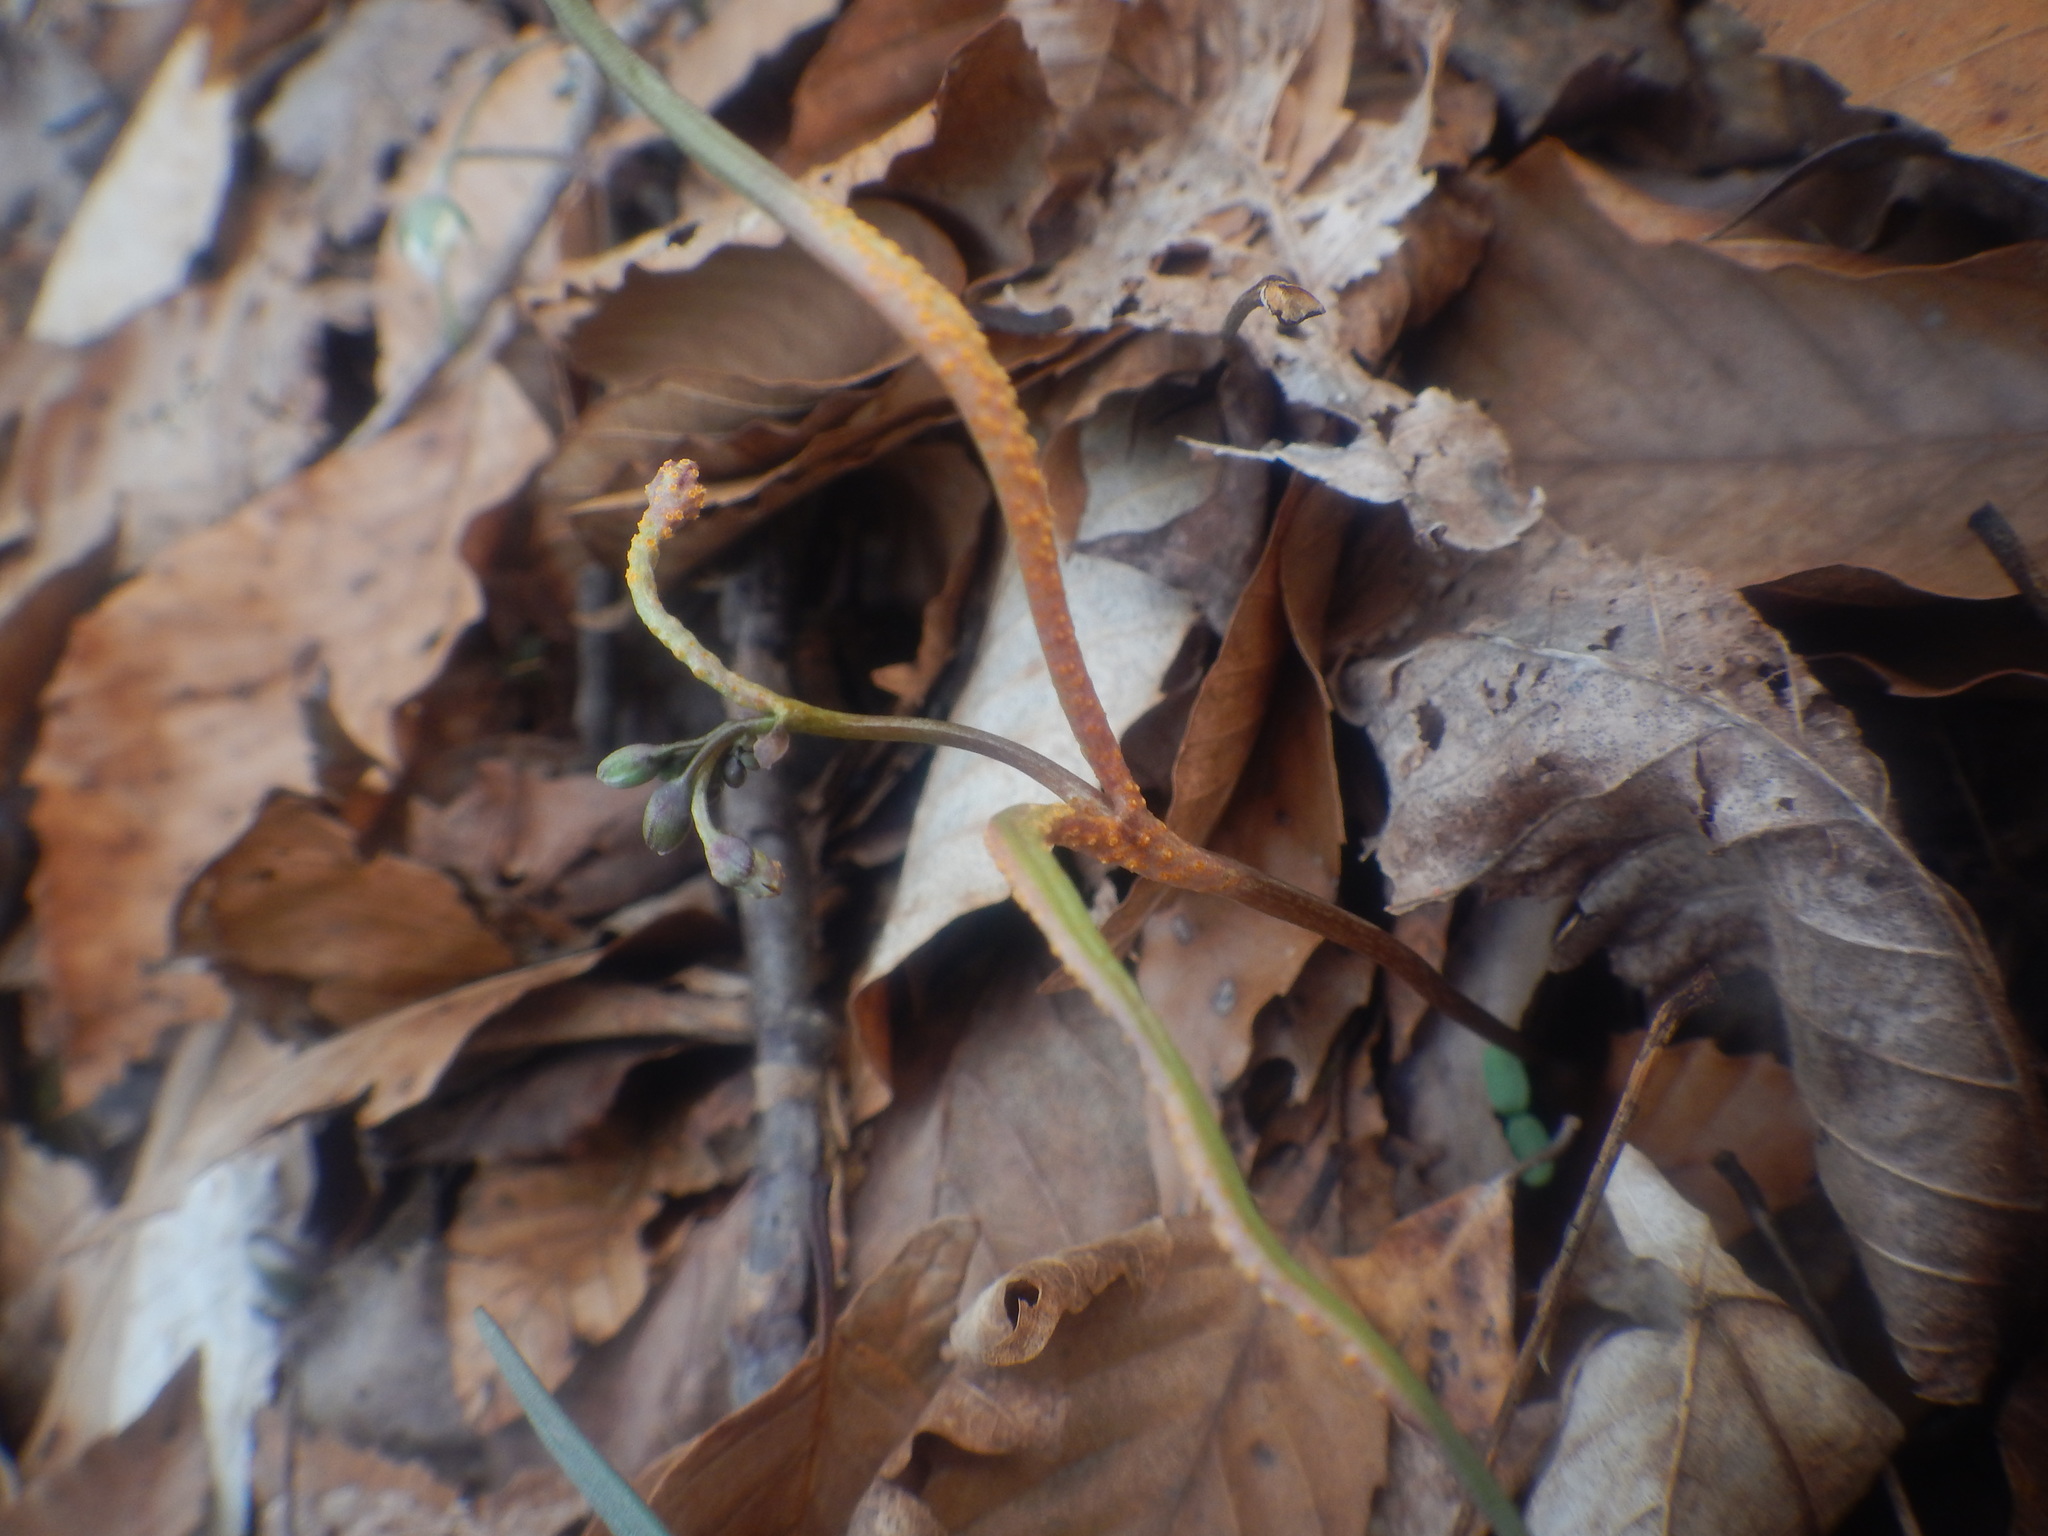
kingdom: Fungi
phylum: Basidiomycota
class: Pucciniomycetes
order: Pucciniales
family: Pucciniaceae
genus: Puccinia
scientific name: Puccinia mariae-wilsoniae
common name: Spring beauty rust
